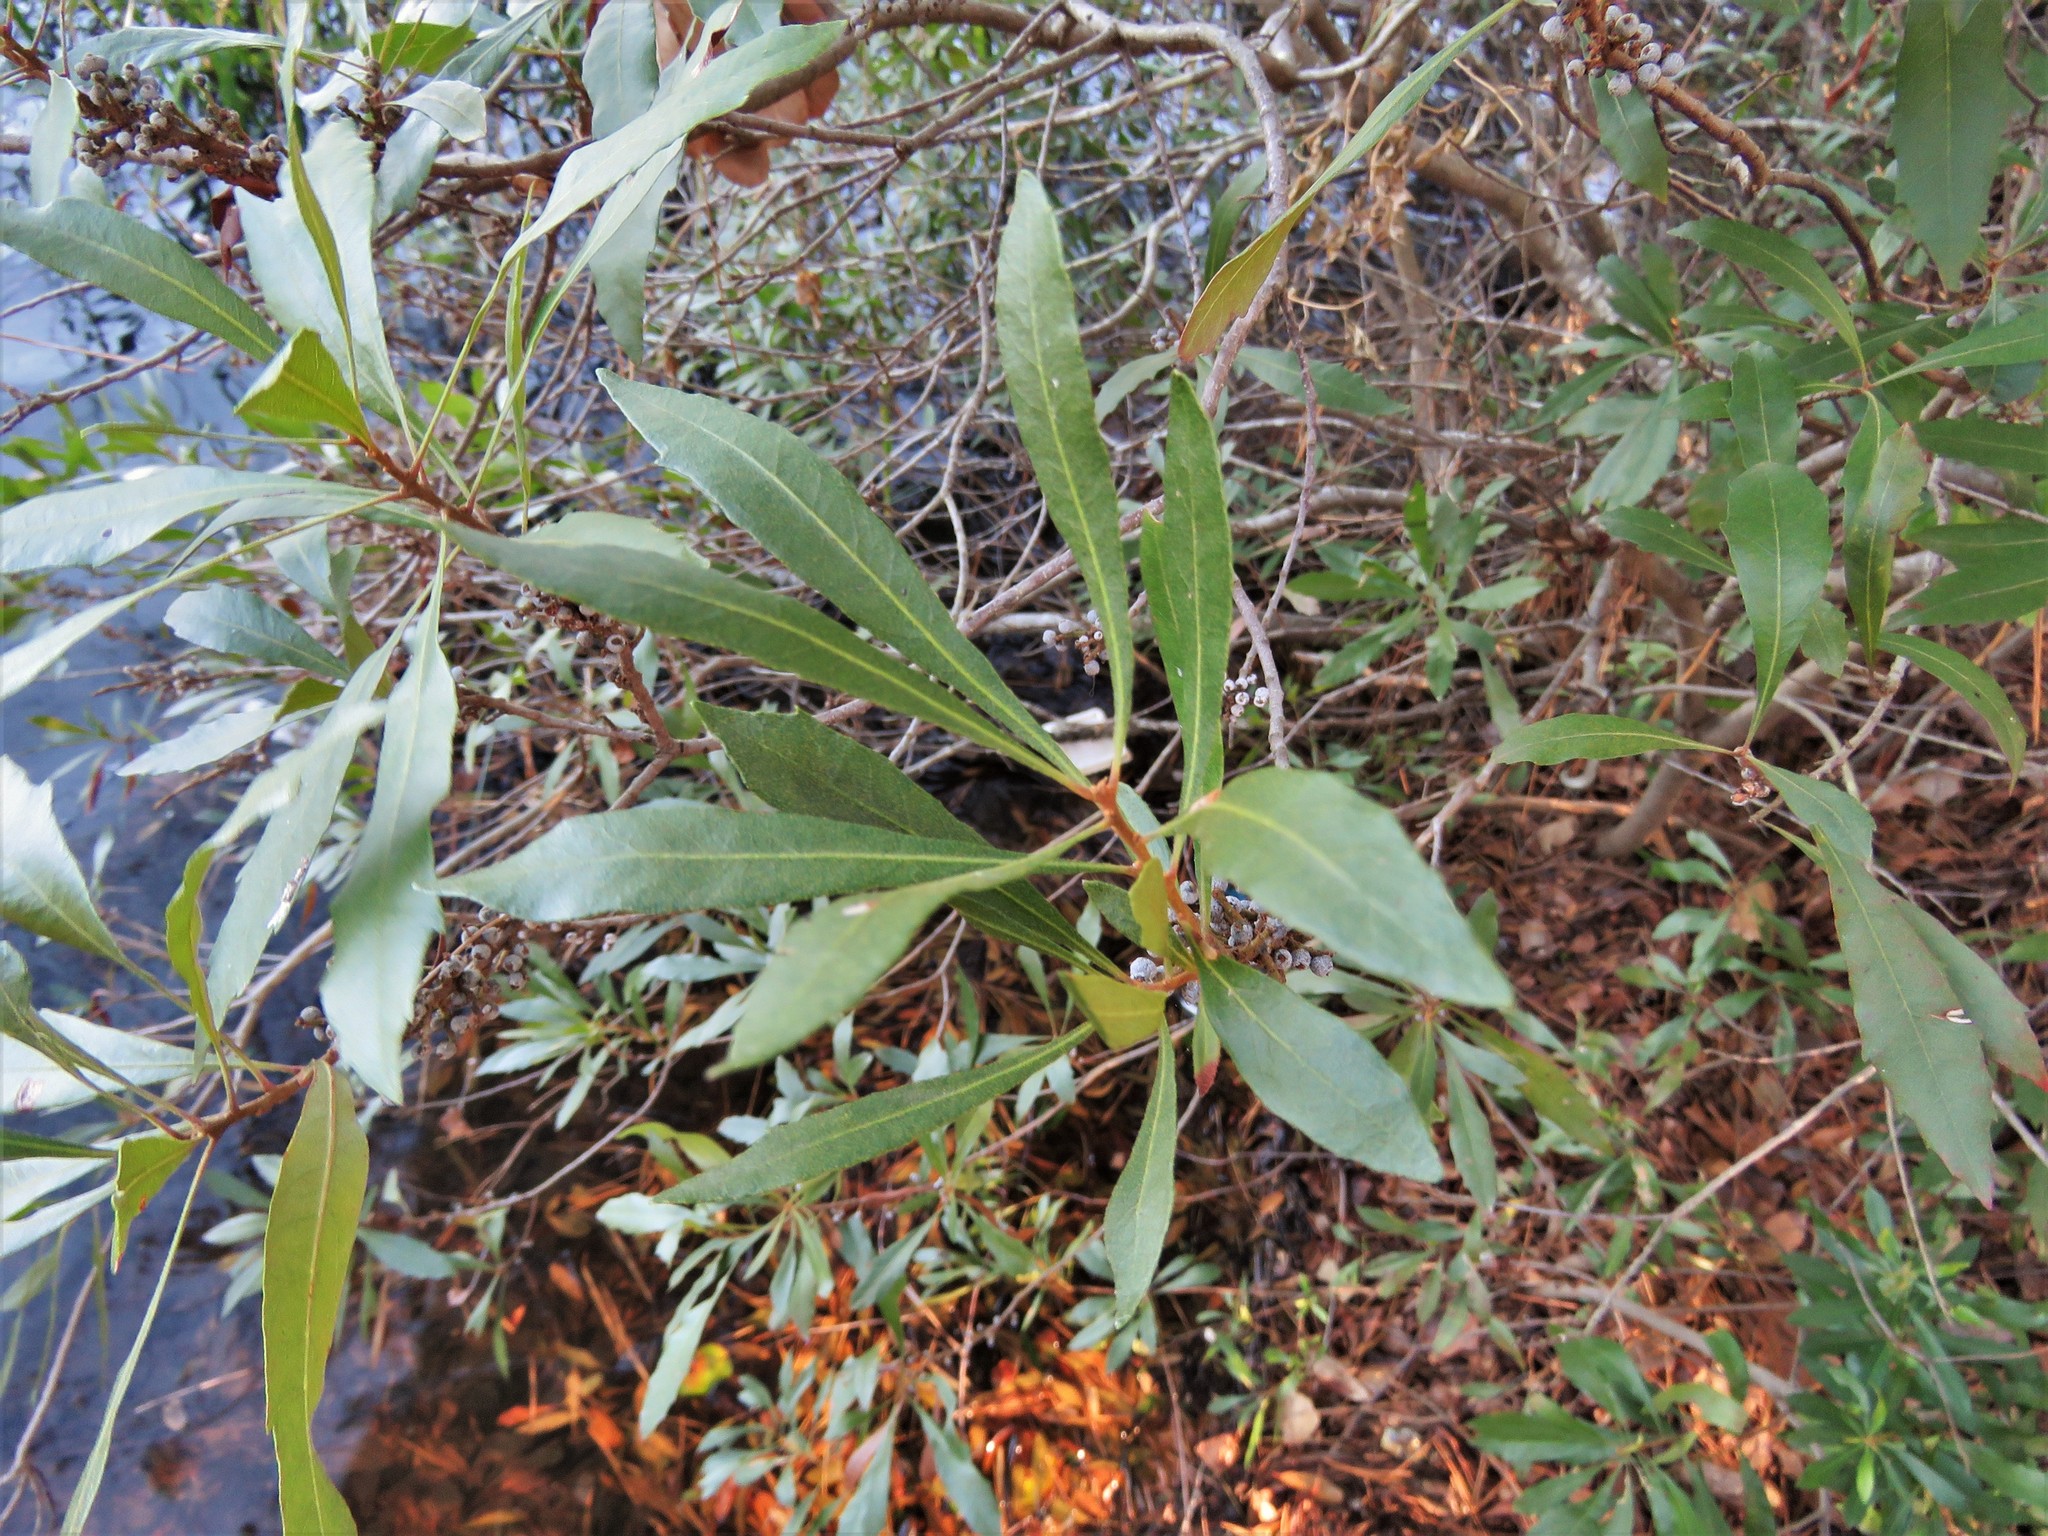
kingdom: Plantae
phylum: Tracheophyta
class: Magnoliopsida
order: Fagales
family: Myricaceae
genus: Morella
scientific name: Morella cerifera
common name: Wax myrtle
